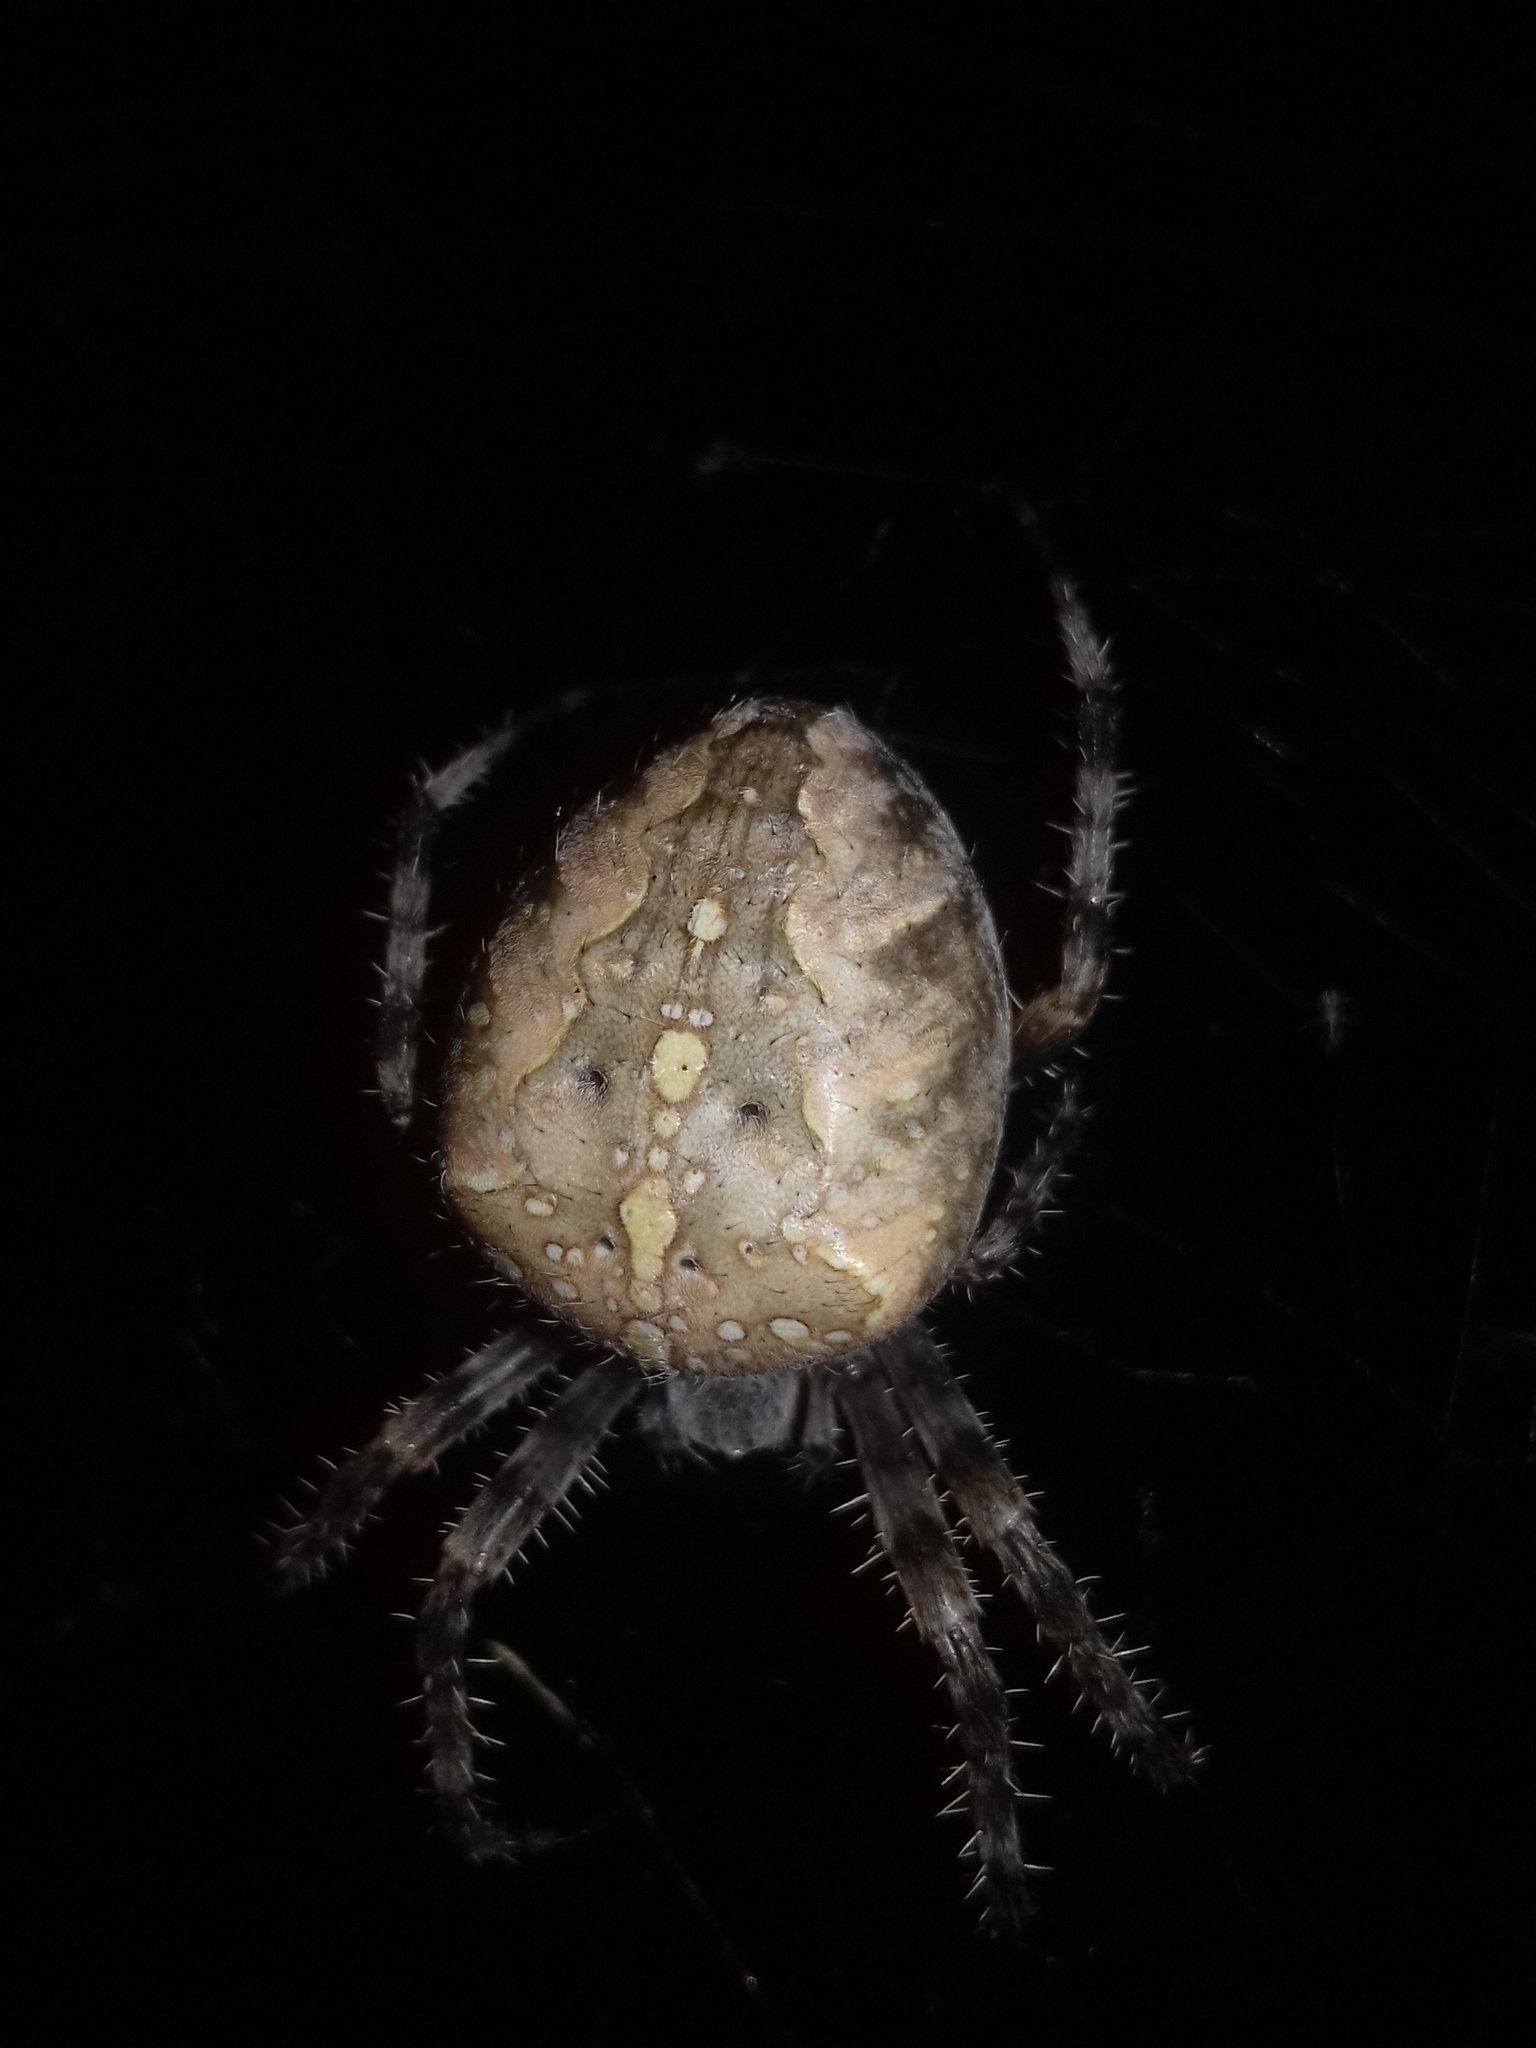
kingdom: Animalia
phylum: Arthropoda
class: Arachnida
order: Araneae
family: Araneidae
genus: Araneus
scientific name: Araneus diadematus
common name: Cross orbweaver
